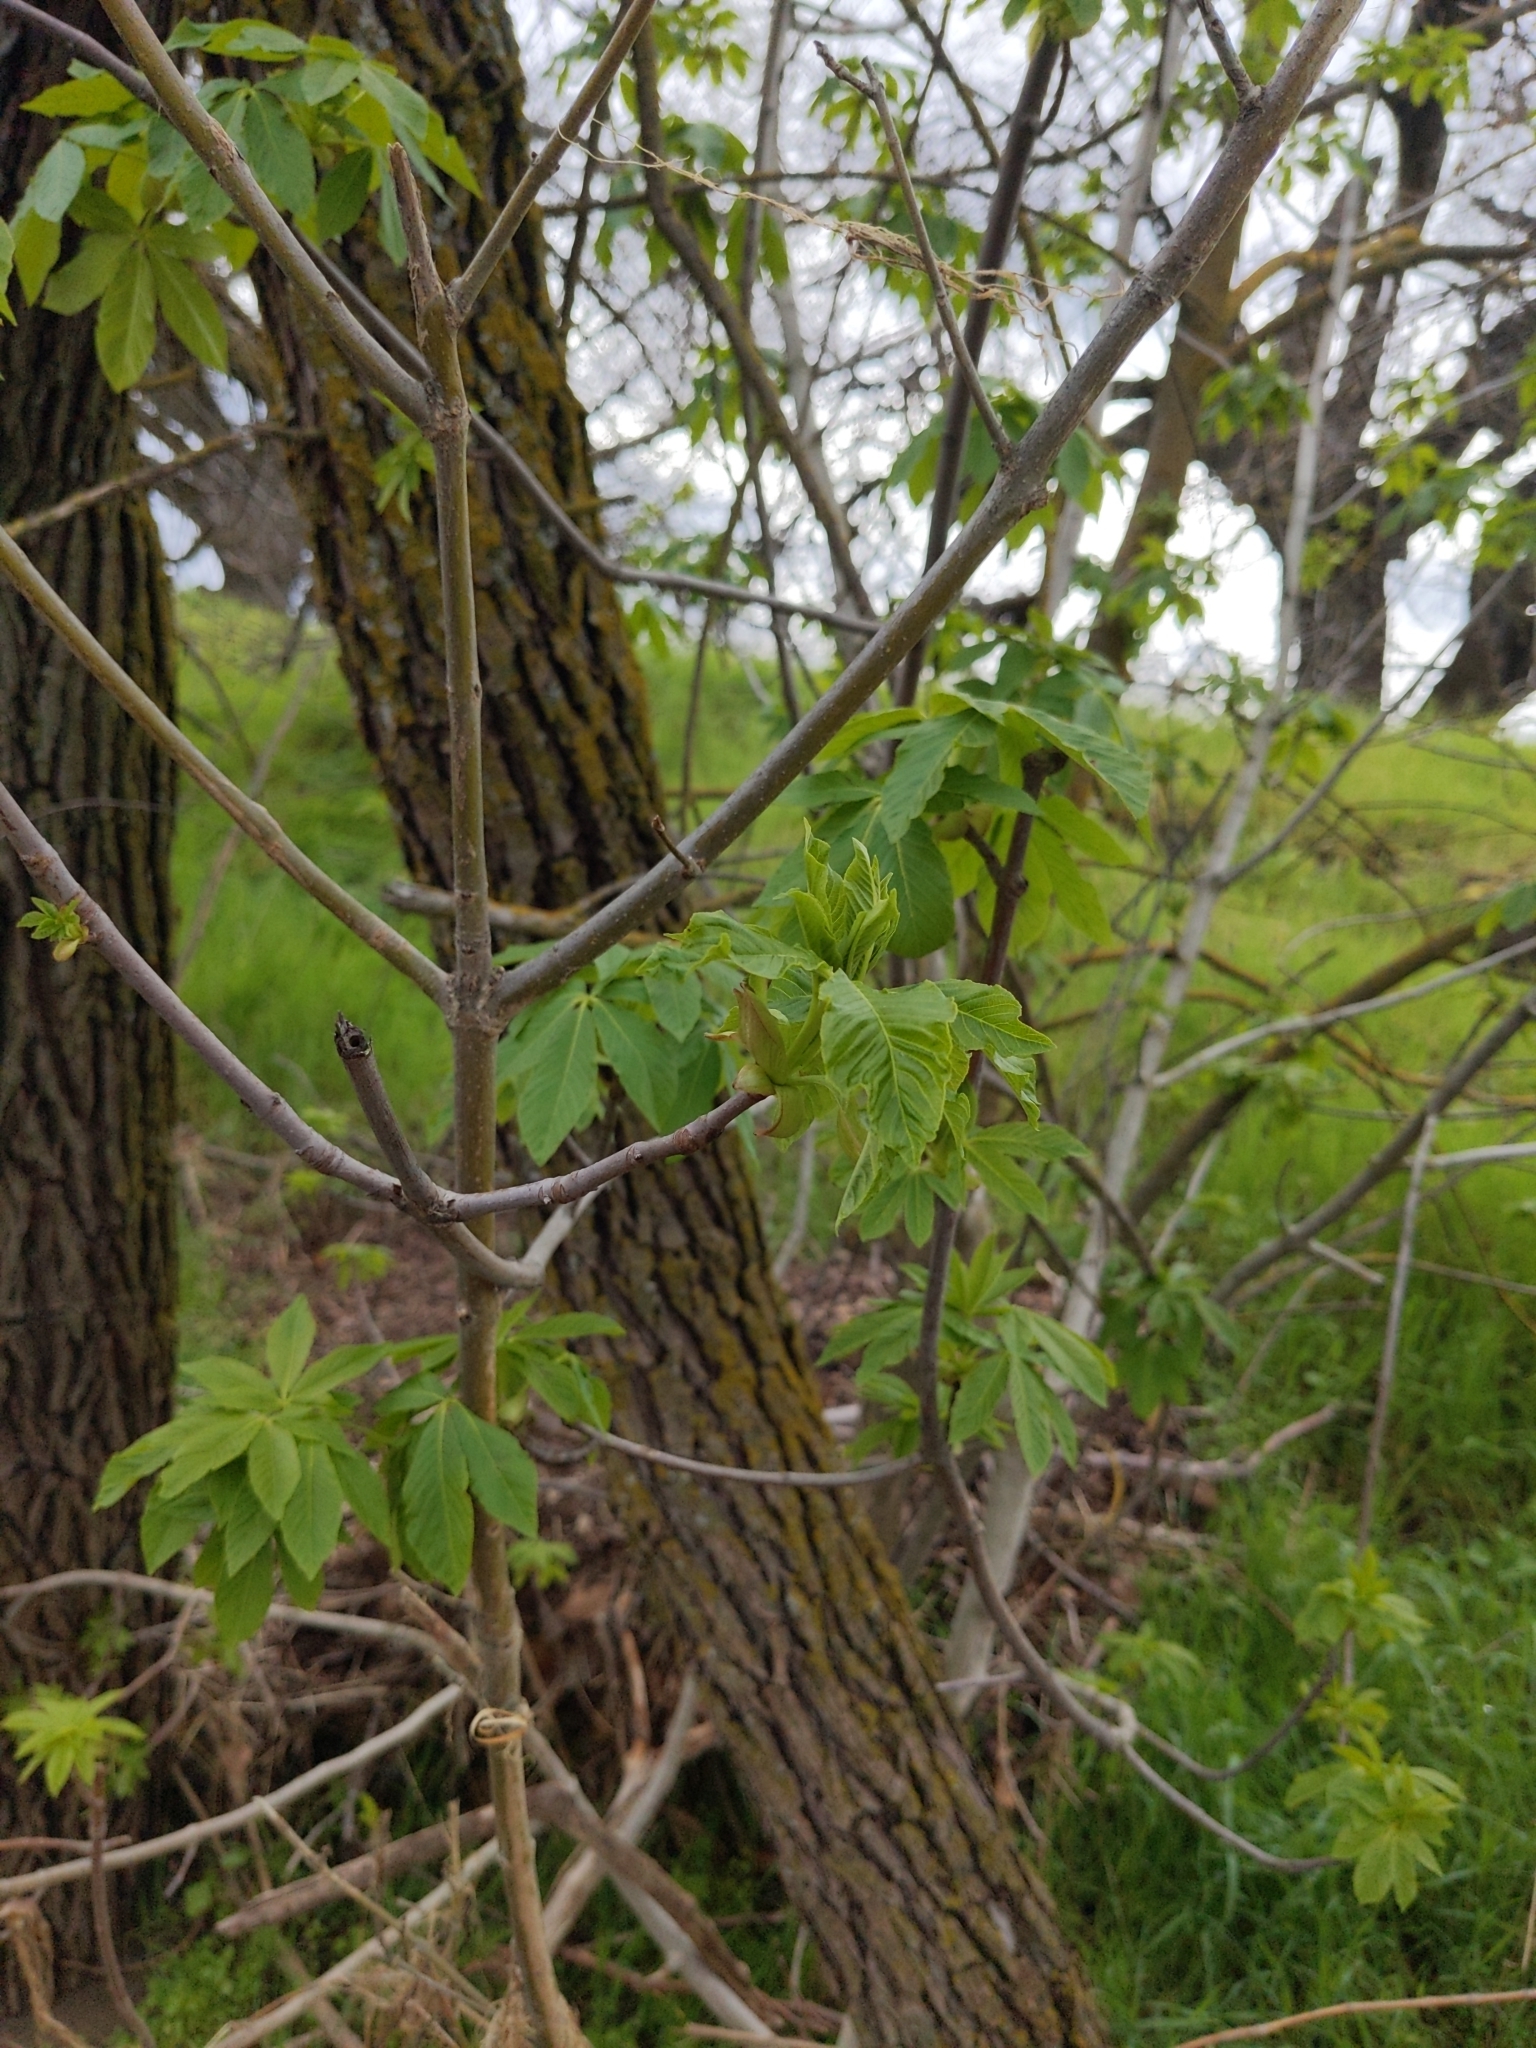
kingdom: Plantae
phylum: Tracheophyta
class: Magnoliopsida
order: Sapindales
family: Sapindaceae
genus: Aesculus
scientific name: Aesculus californica
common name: California buckeye
